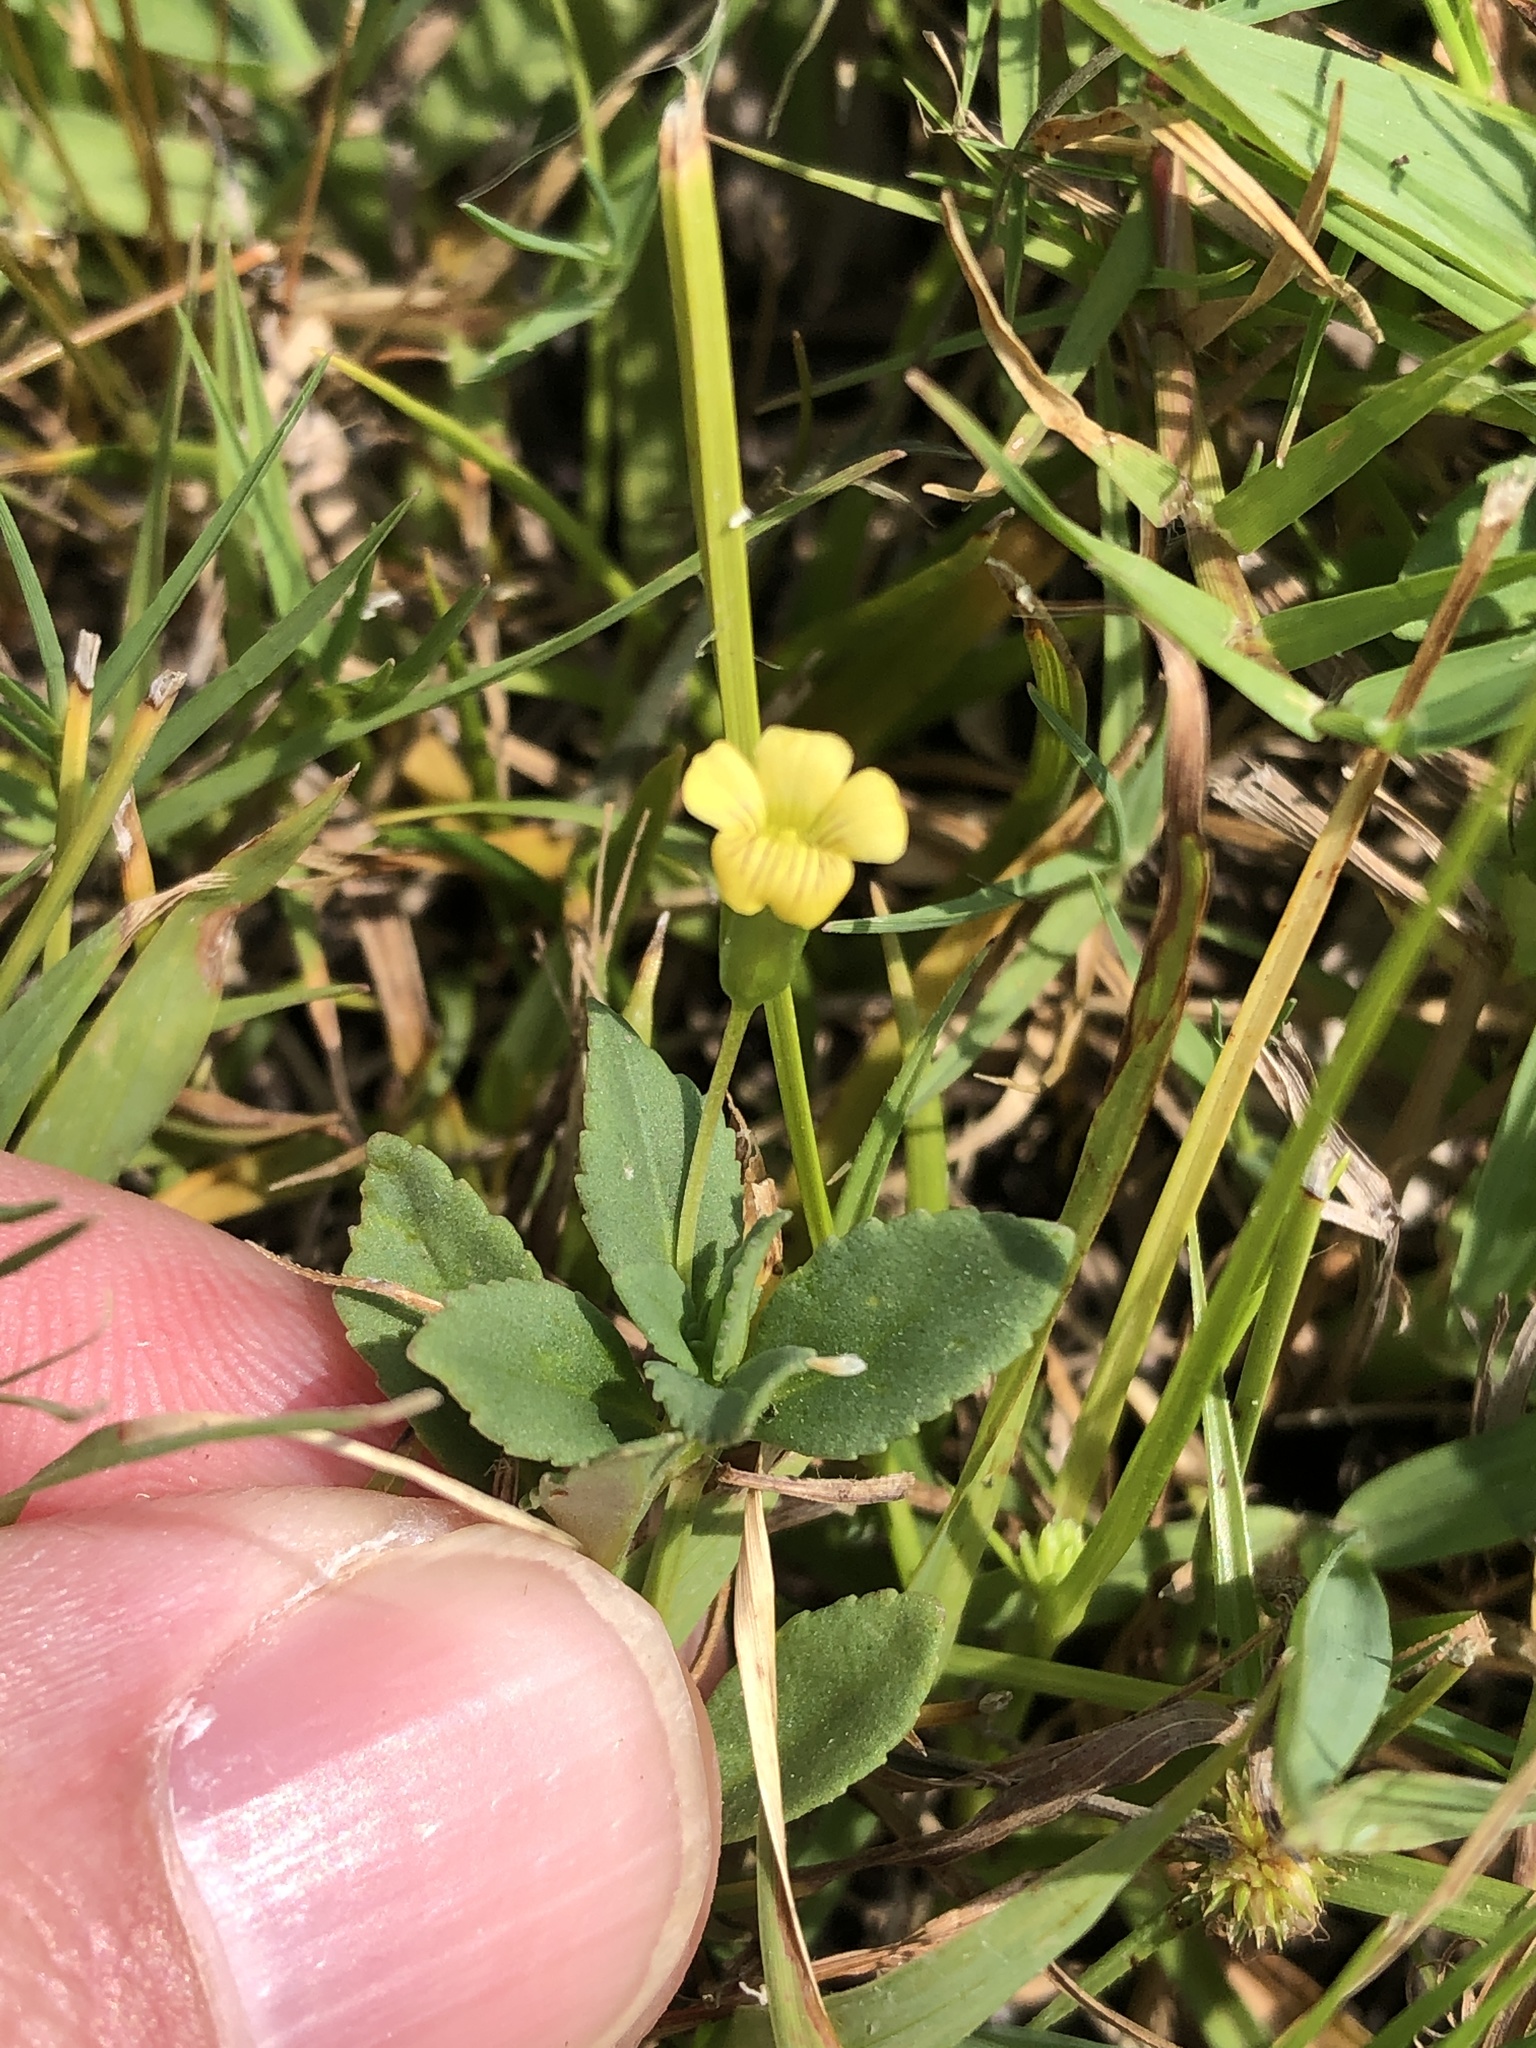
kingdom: Plantae
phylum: Tracheophyta
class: Magnoliopsida
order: Lamiales
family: Plantaginaceae
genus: Mecardonia
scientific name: Mecardonia procumbens
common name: Baby jump-up
